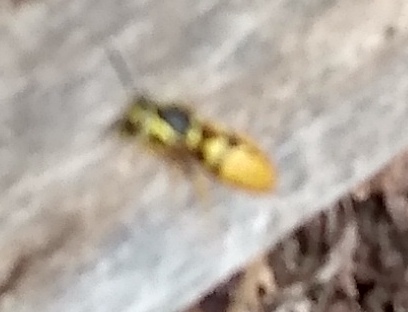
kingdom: Animalia
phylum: Arthropoda
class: Insecta
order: Hymenoptera
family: Vespidae
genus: Vespula
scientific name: Vespula
